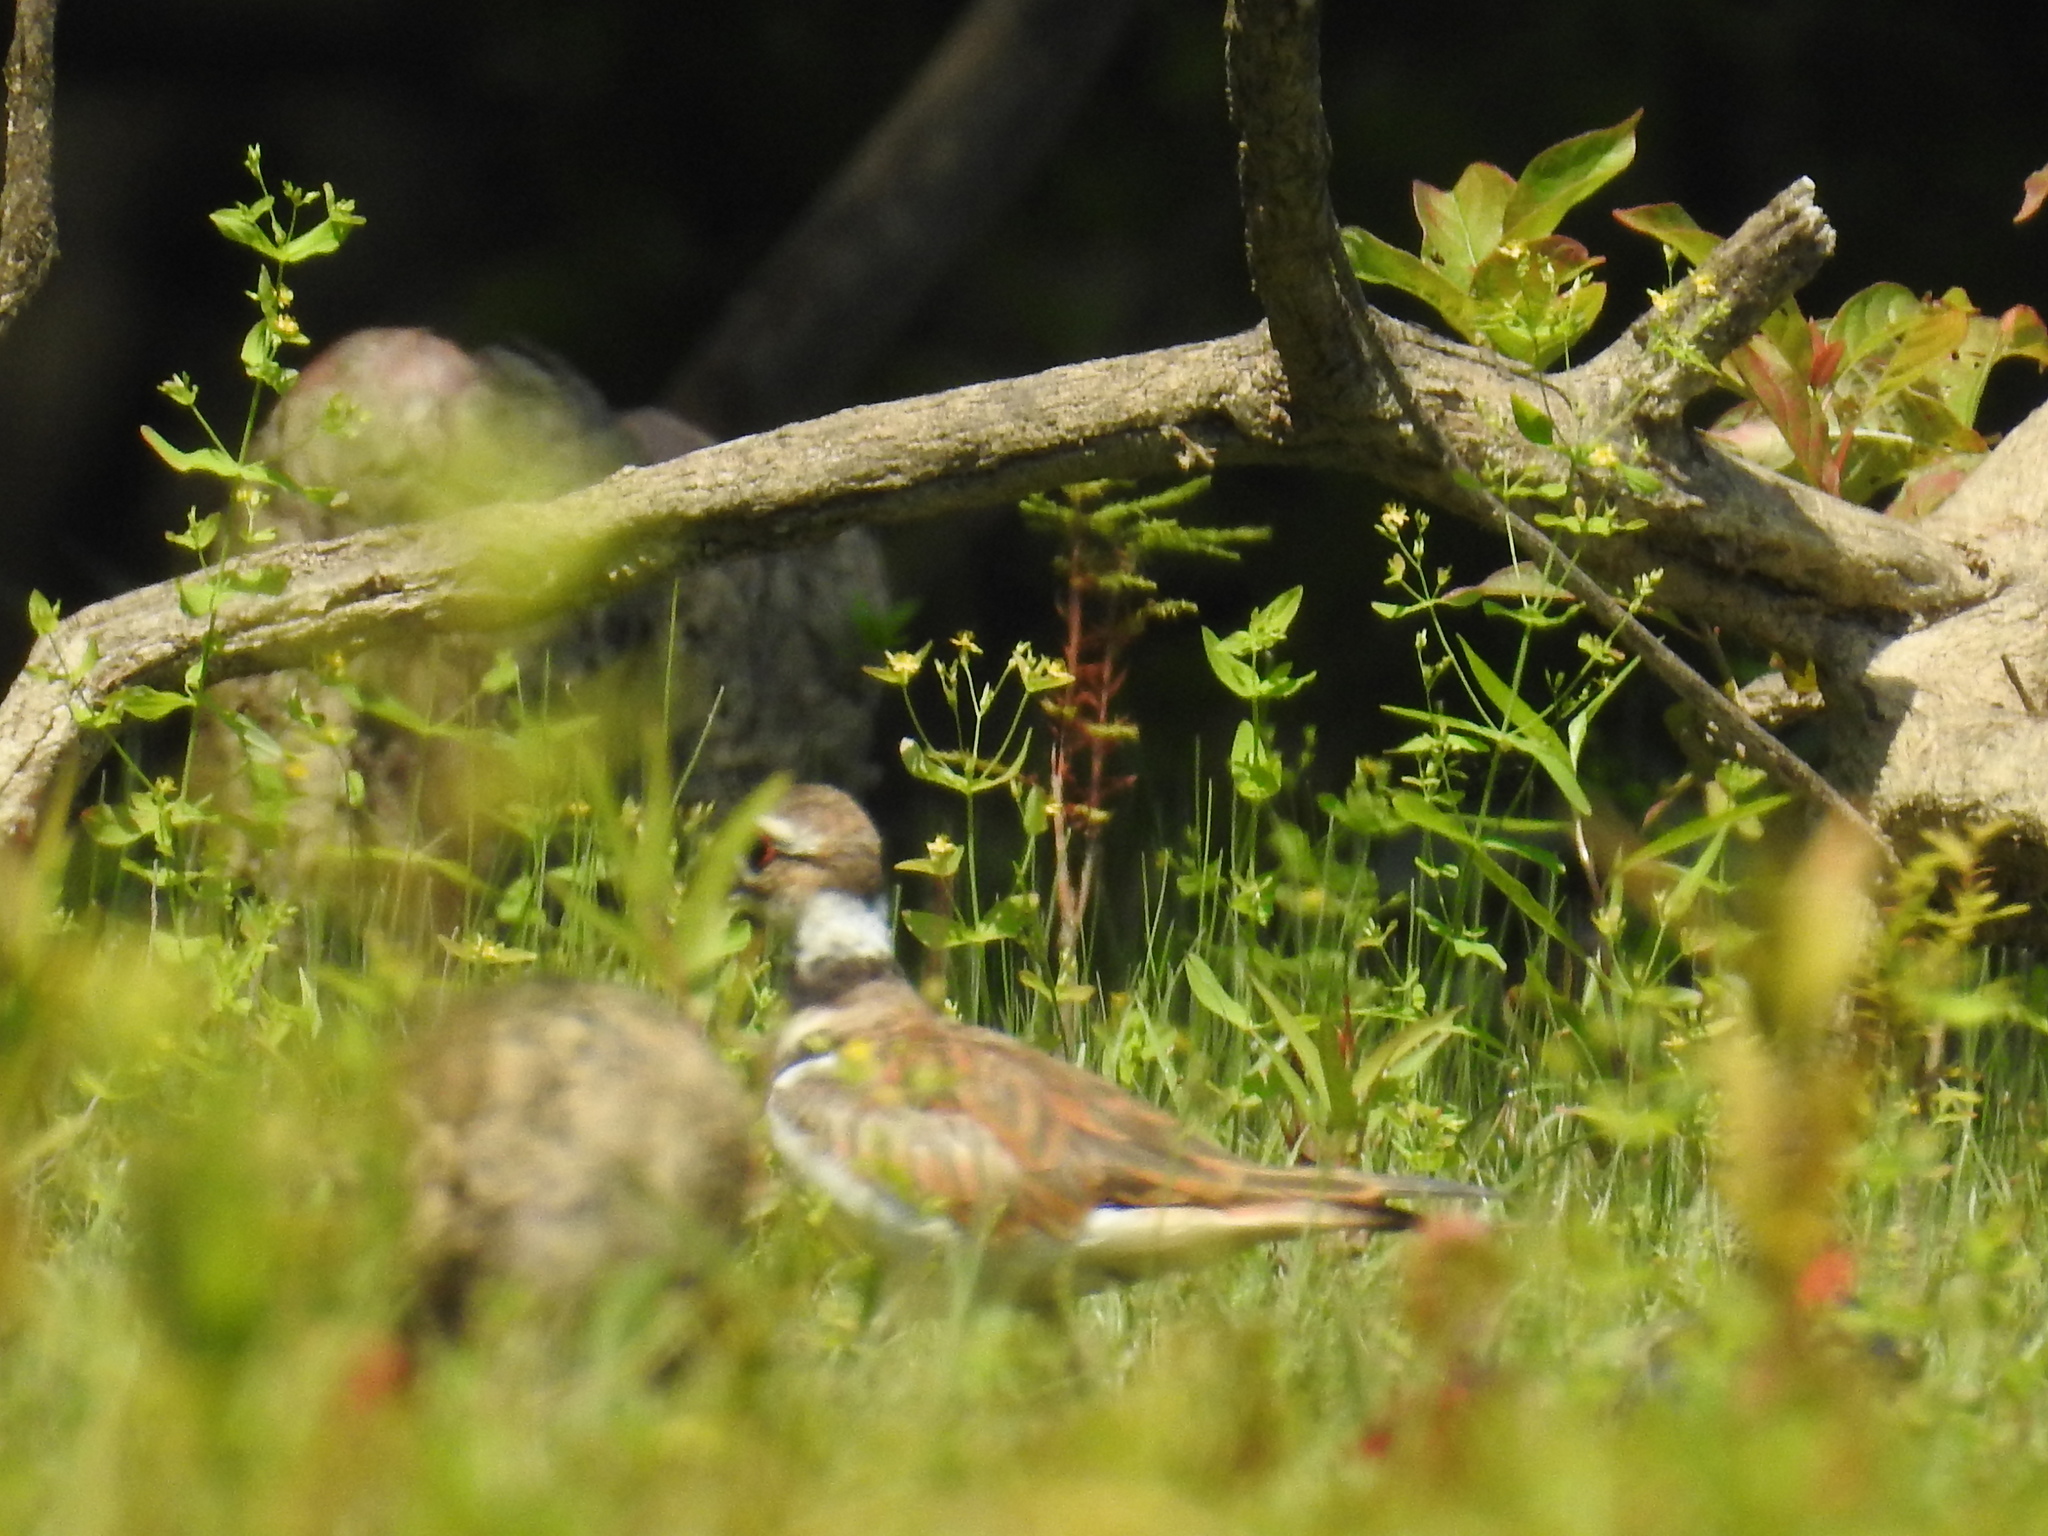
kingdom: Animalia
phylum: Chordata
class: Aves
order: Charadriiformes
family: Charadriidae
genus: Charadrius
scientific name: Charadrius vociferus
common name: Killdeer
